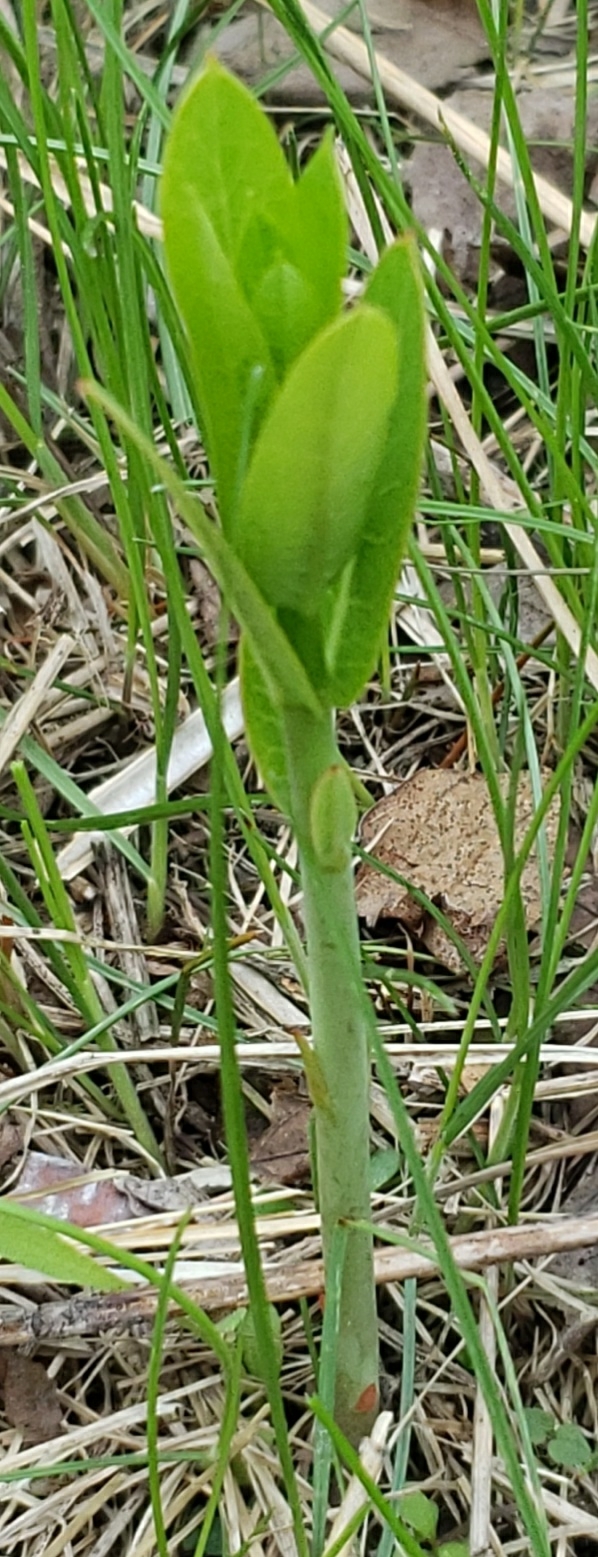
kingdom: Plantae
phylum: Tracheophyta
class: Magnoliopsida
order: Gentianales
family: Apocynaceae
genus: Apocynum
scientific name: Apocynum cannabinum
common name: Hemp dogbane
